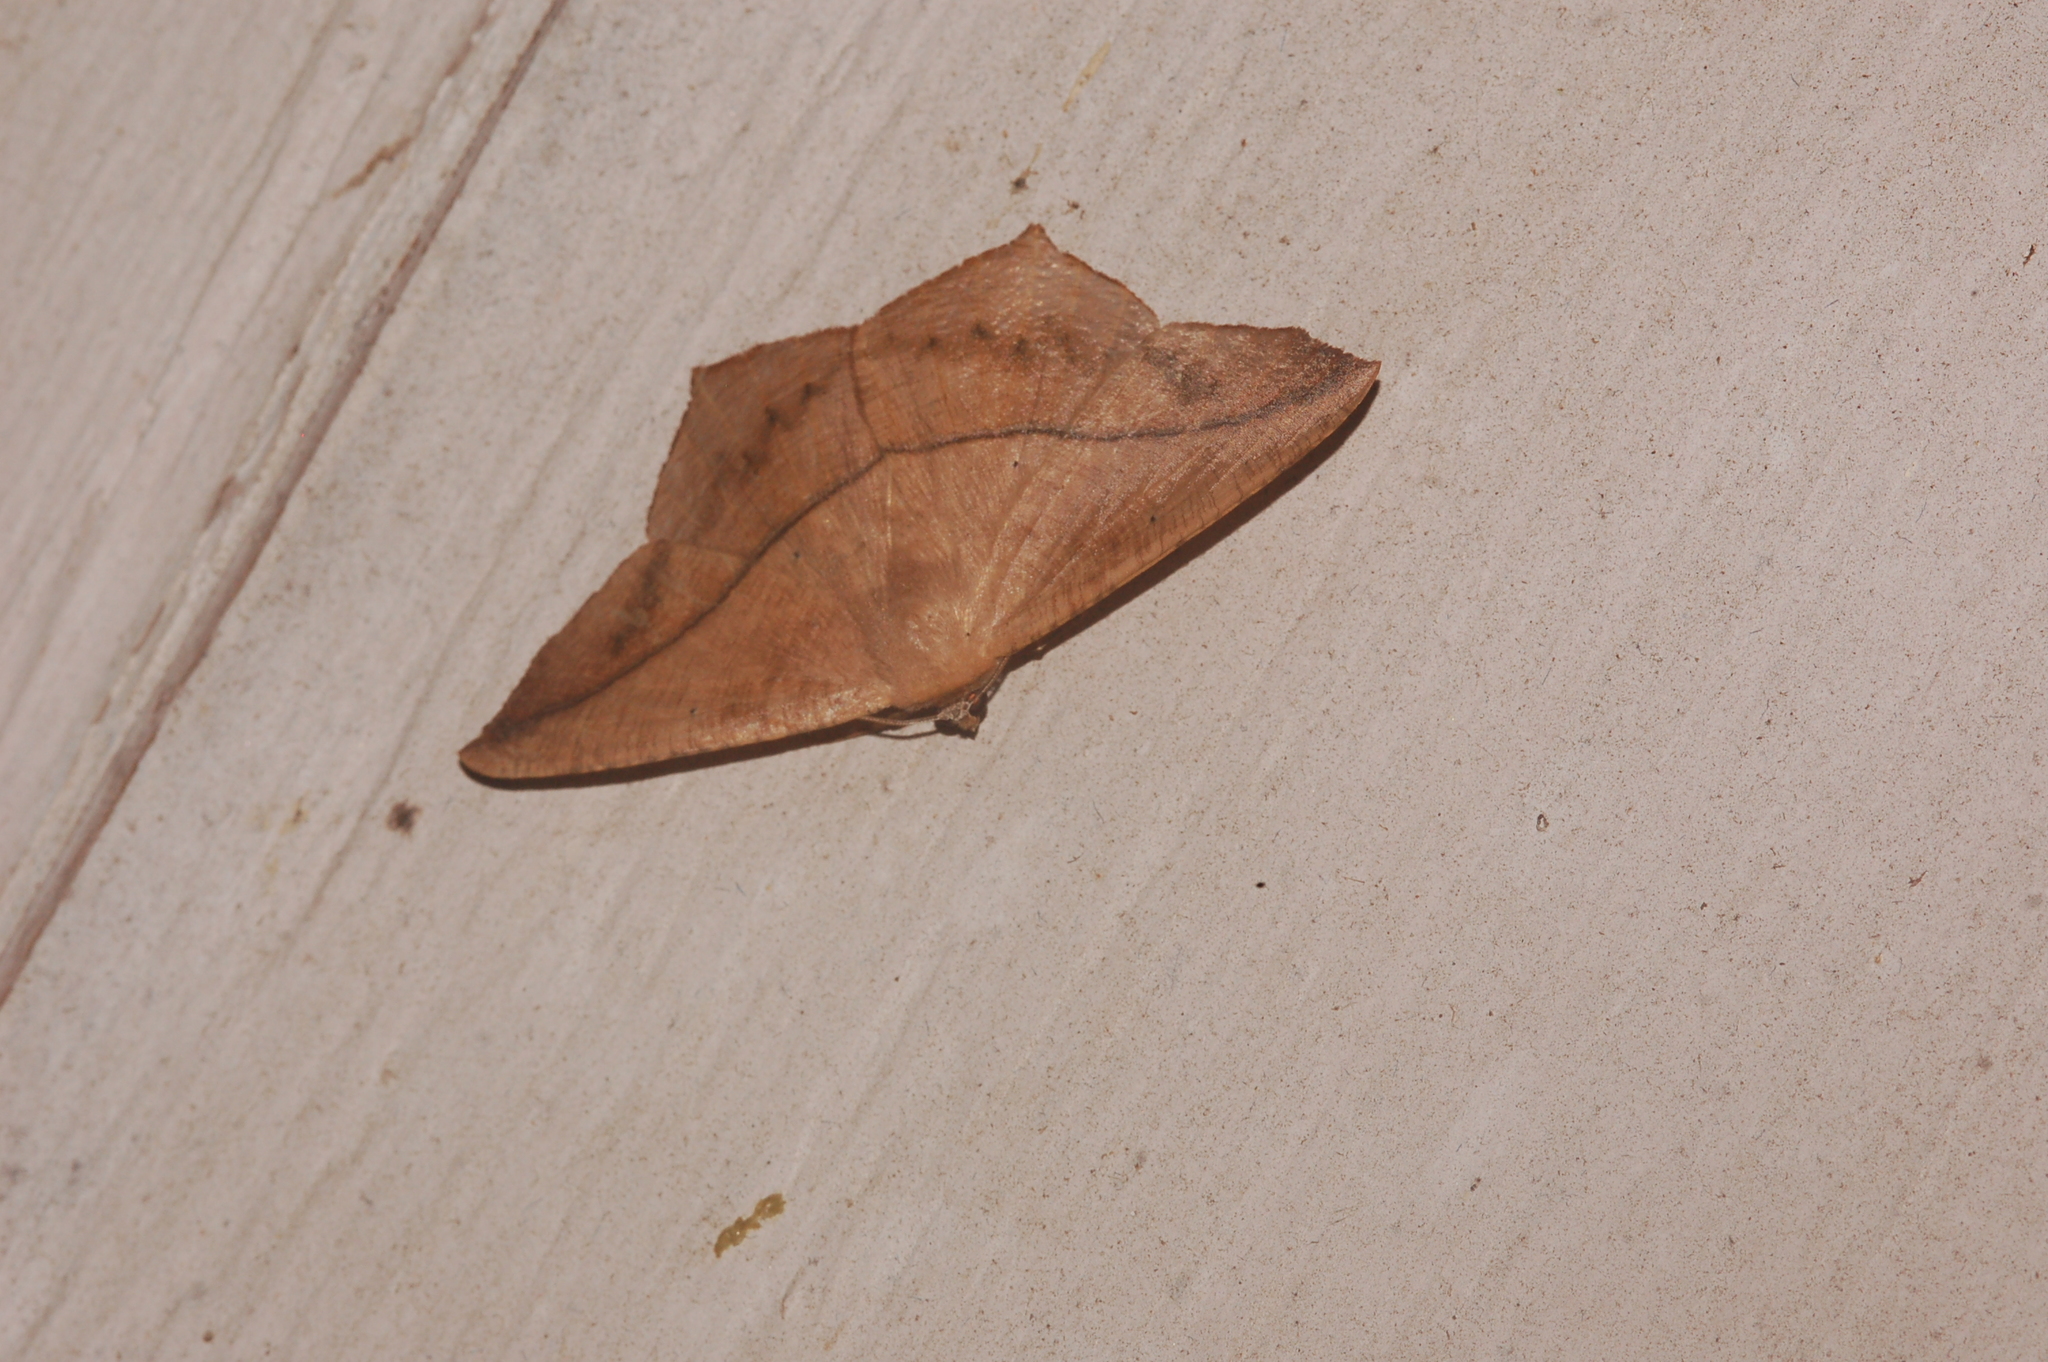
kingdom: Animalia
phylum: Arthropoda
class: Insecta
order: Lepidoptera
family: Geometridae
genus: Prochoerodes
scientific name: Prochoerodes lineola
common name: Large maple spanworm
